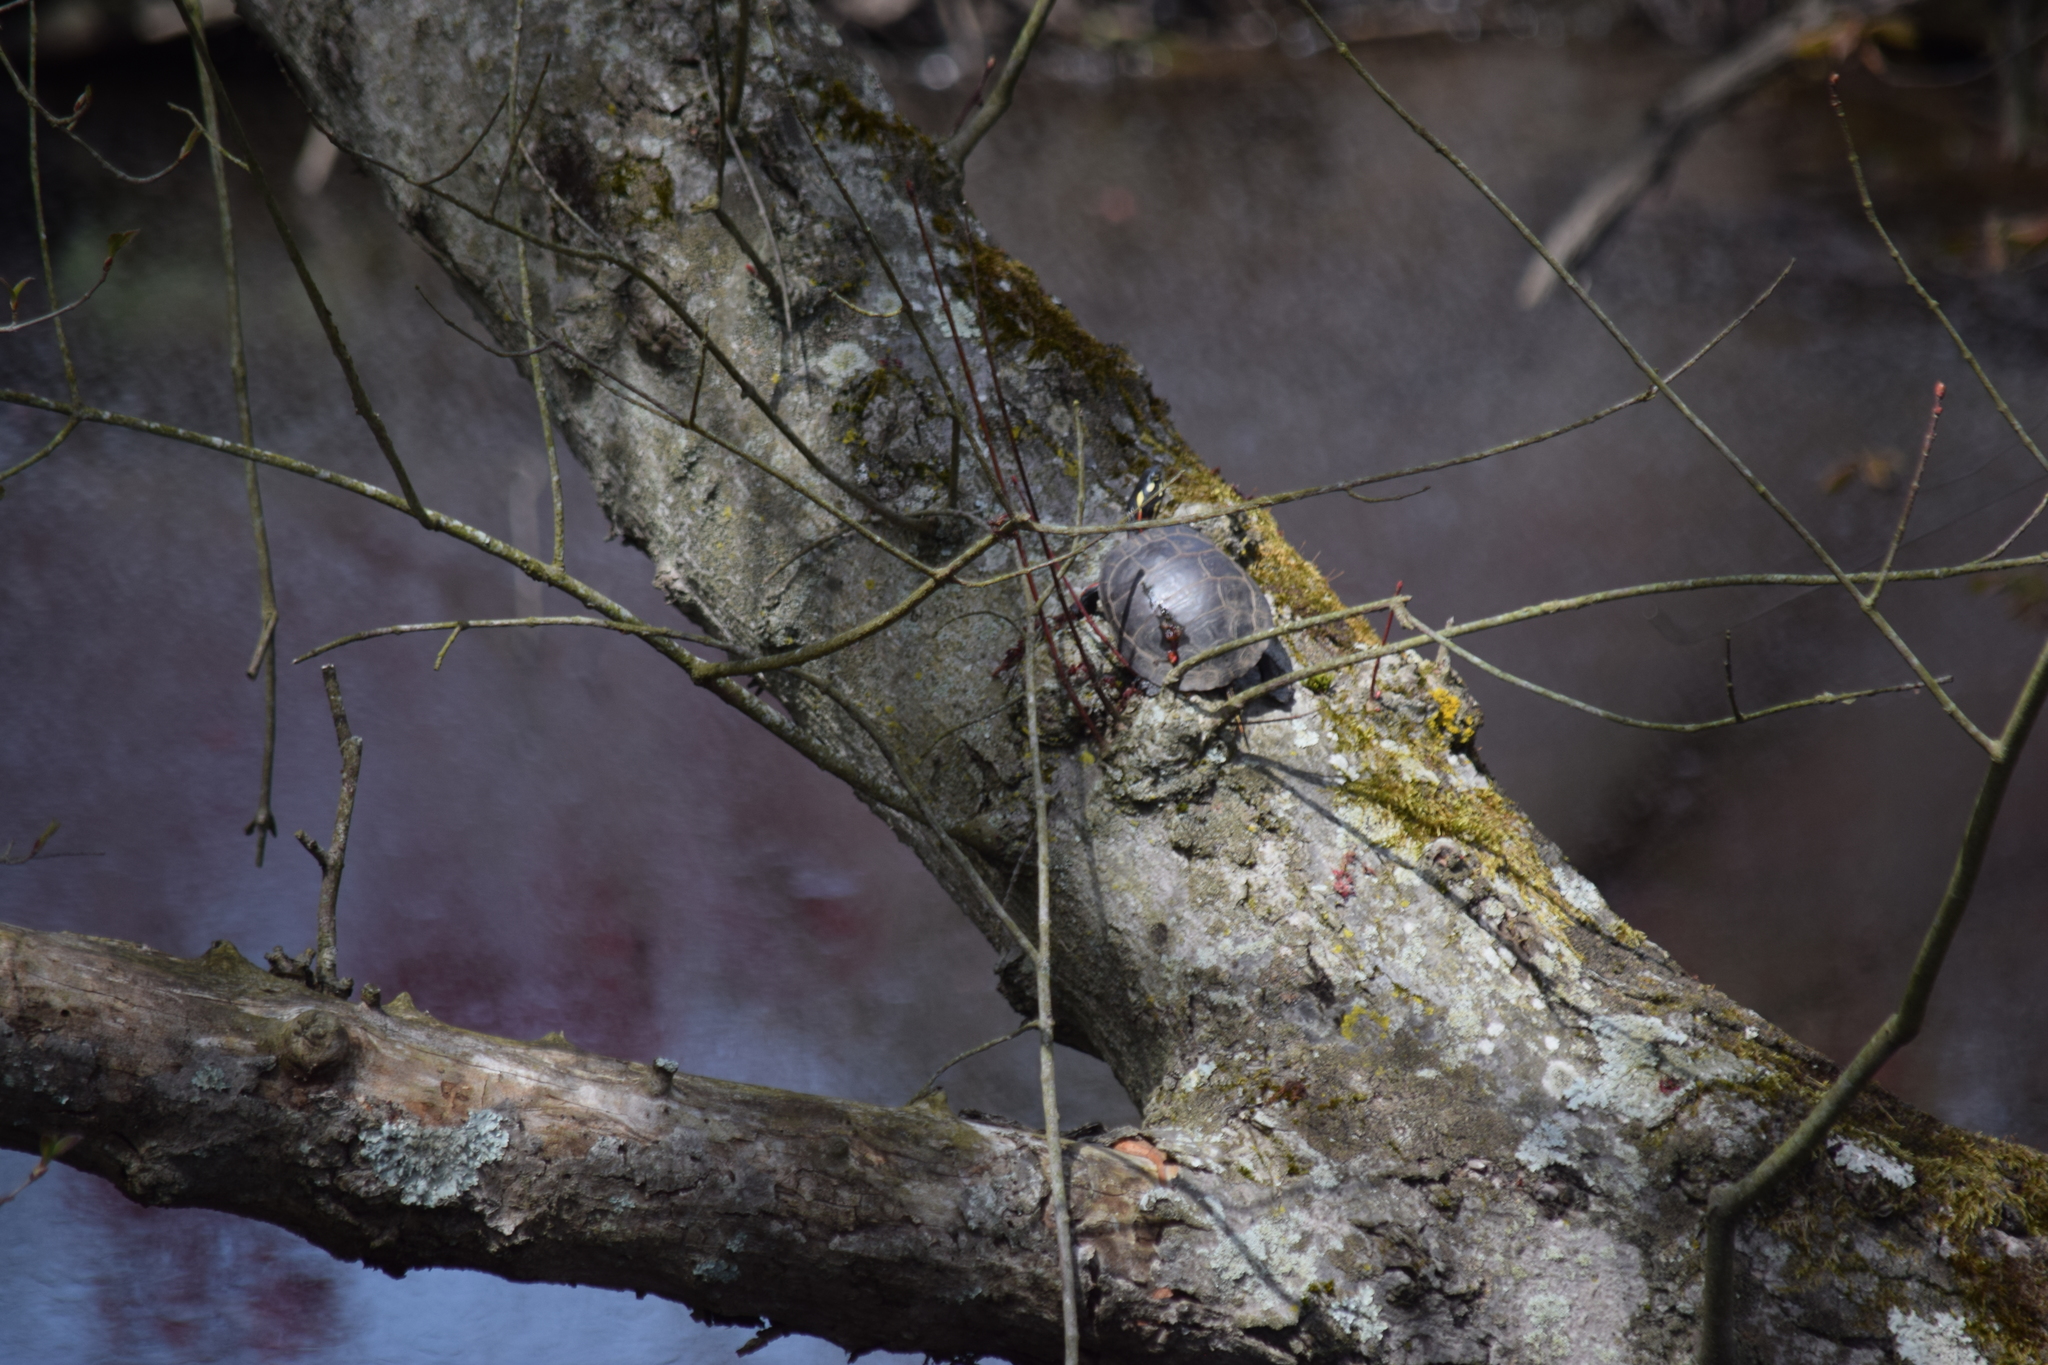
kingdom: Animalia
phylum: Chordata
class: Testudines
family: Emydidae
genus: Chrysemys
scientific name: Chrysemys picta
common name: Painted turtle
